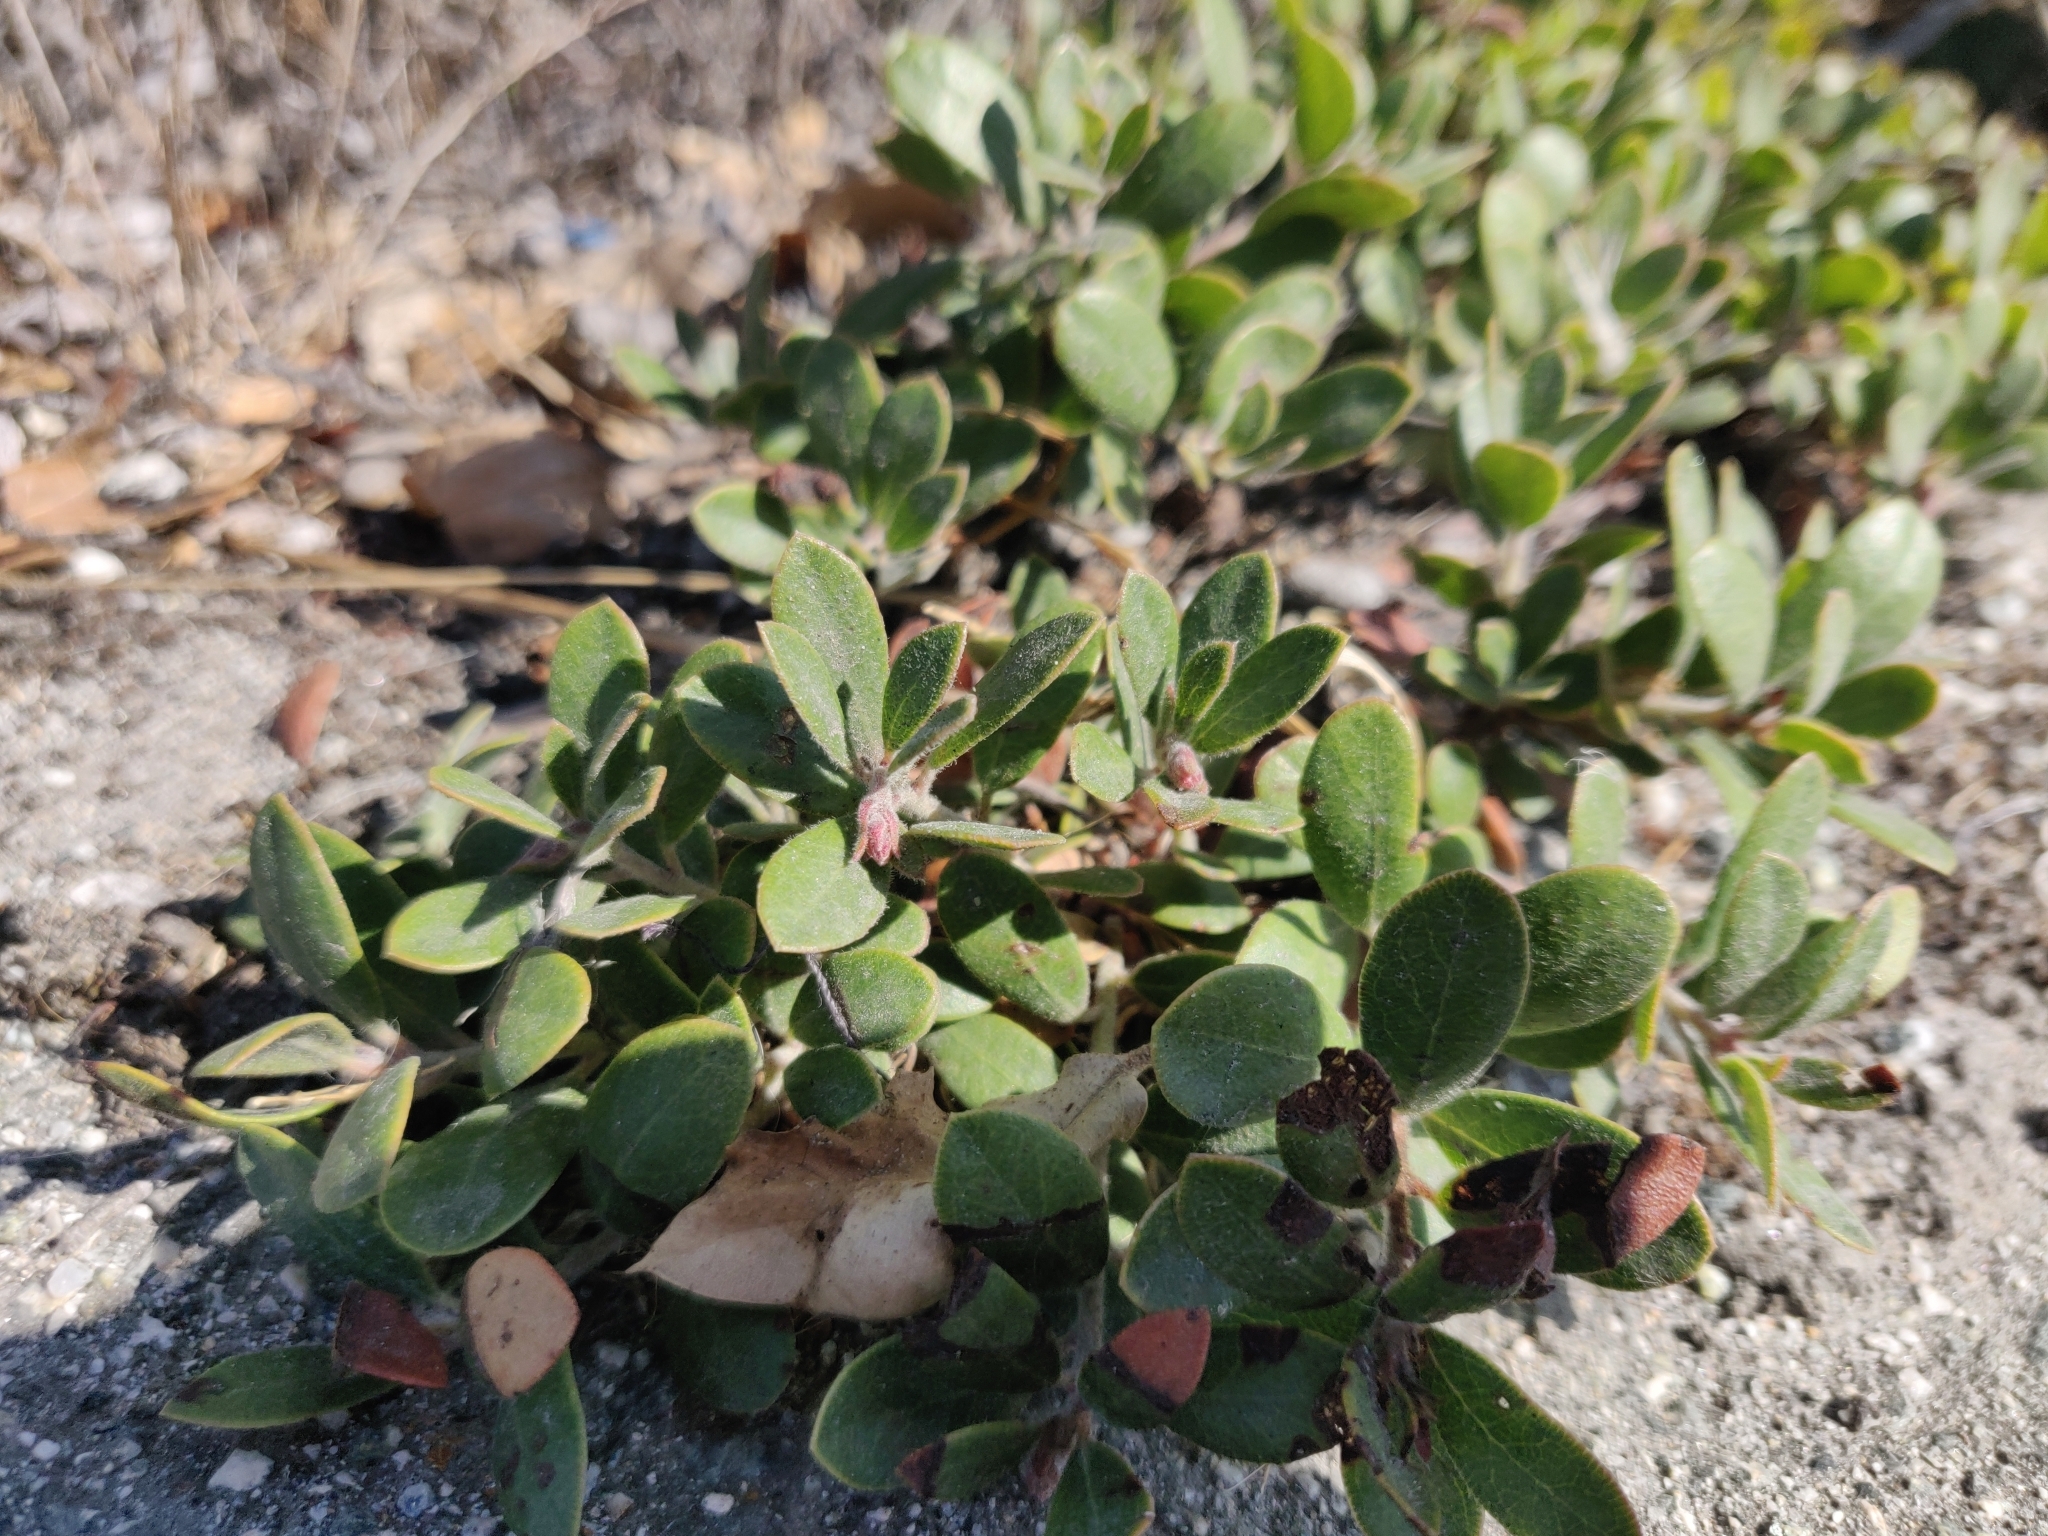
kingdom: Plantae
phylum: Tracheophyta
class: Magnoliopsida
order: Ericales
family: Ericaceae
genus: Arctostaphylos
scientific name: Arctostaphylos pumila
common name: Sandmat manzanita
